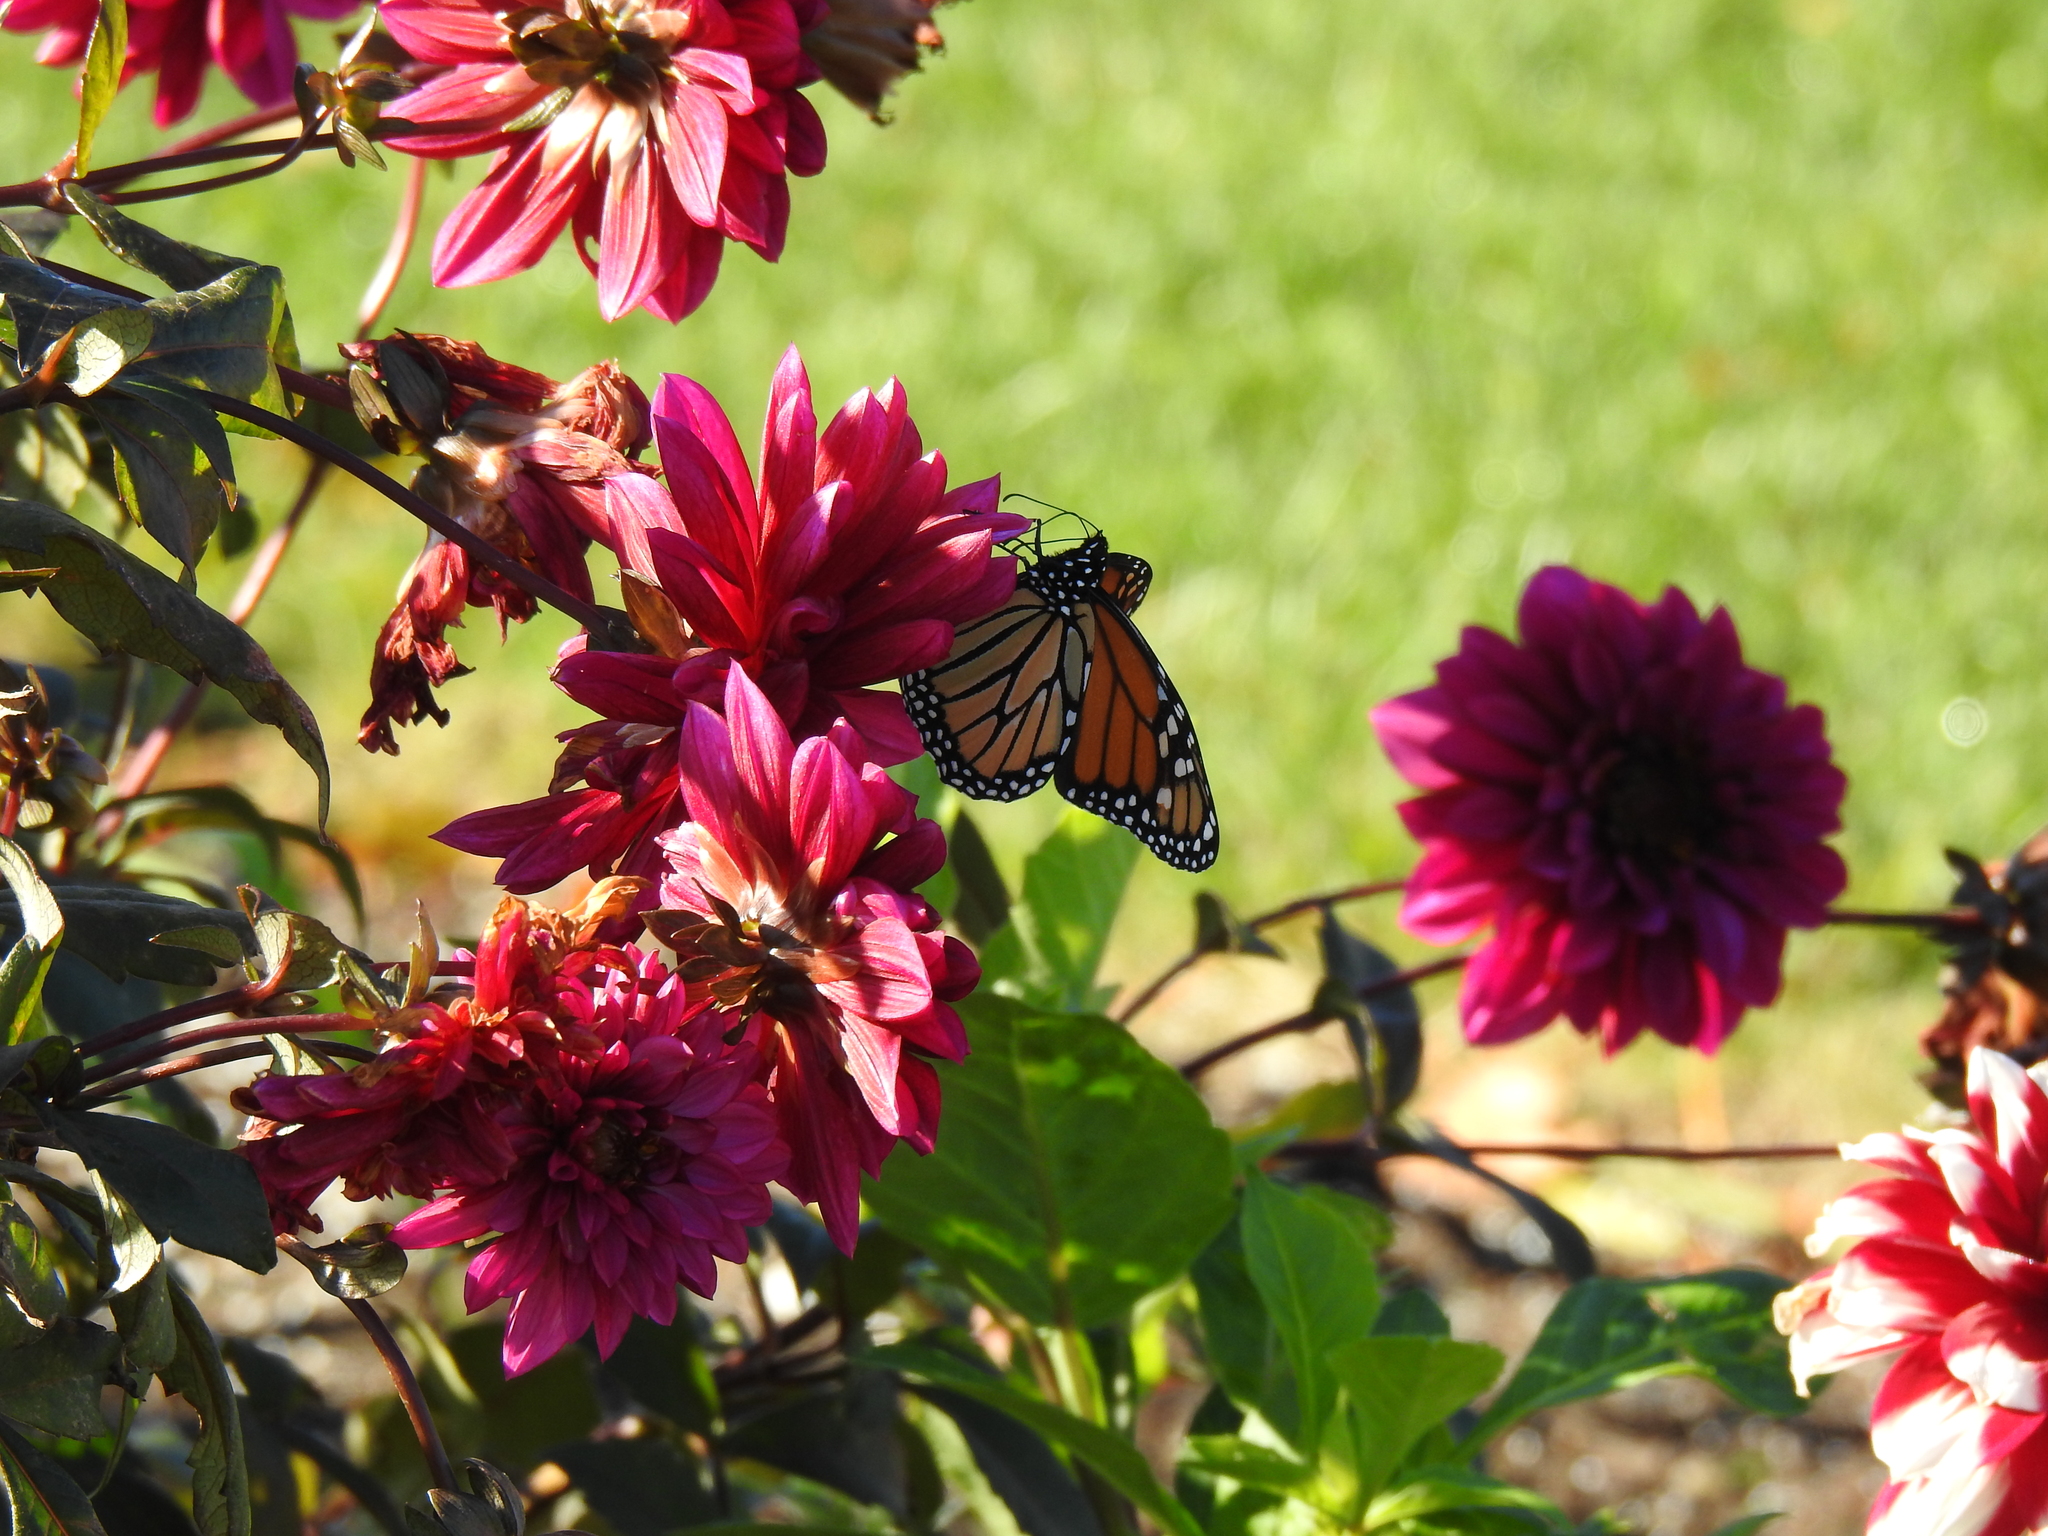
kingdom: Animalia
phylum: Arthropoda
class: Insecta
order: Lepidoptera
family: Nymphalidae
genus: Danaus
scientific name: Danaus plexippus
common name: Monarch
